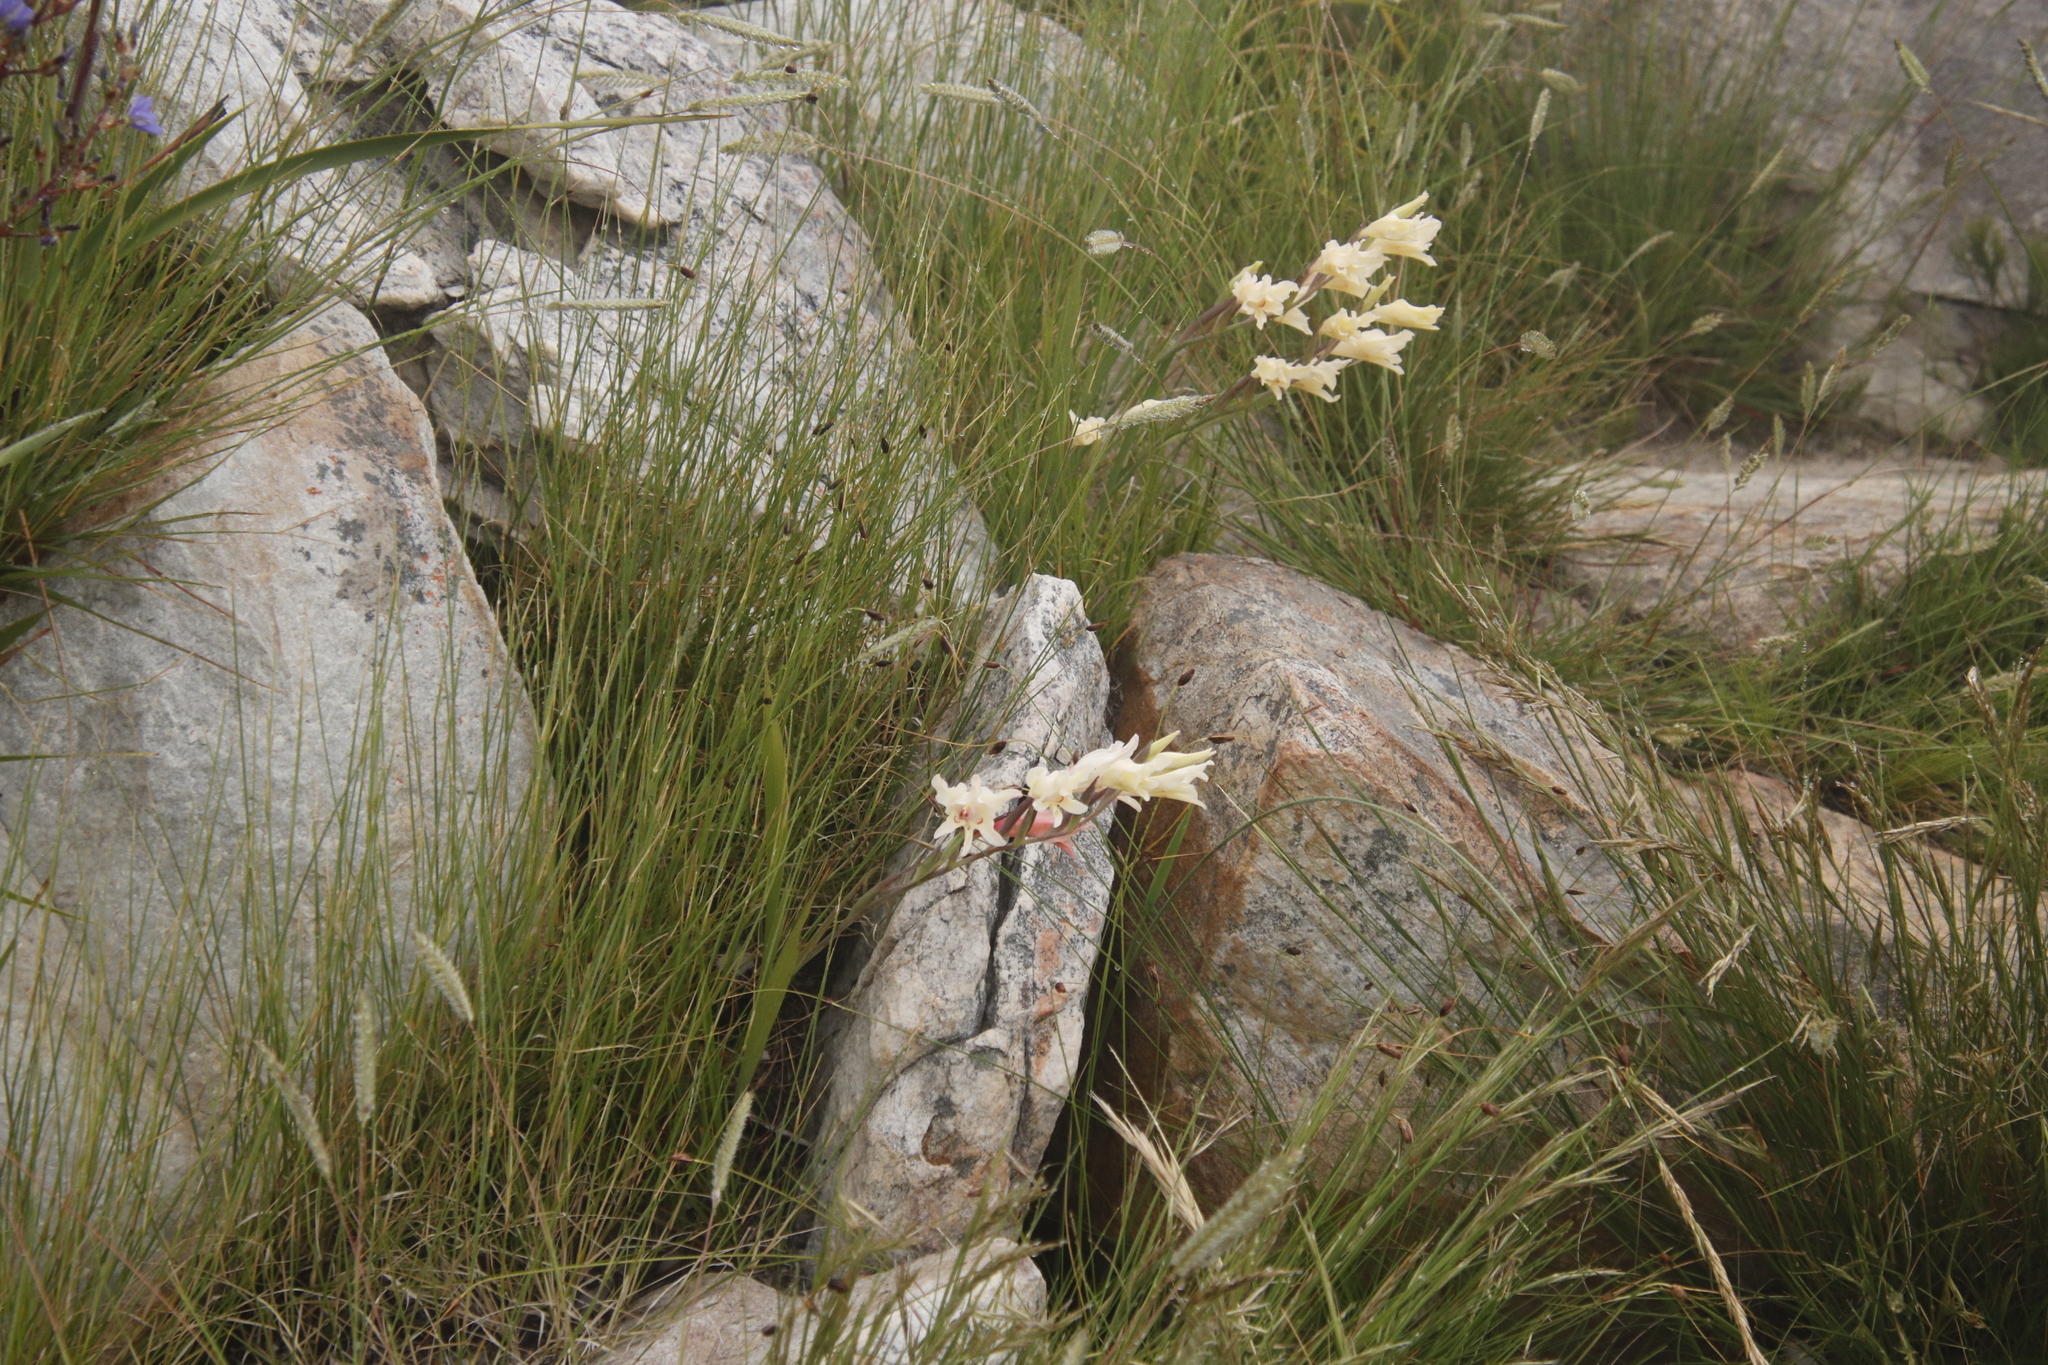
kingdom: Plantae
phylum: Tracheophyta
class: Liliopsida
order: Asparagales
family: Iridaceae
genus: Gladiolus
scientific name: Gladiolus undulatus
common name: Large painted-lady
